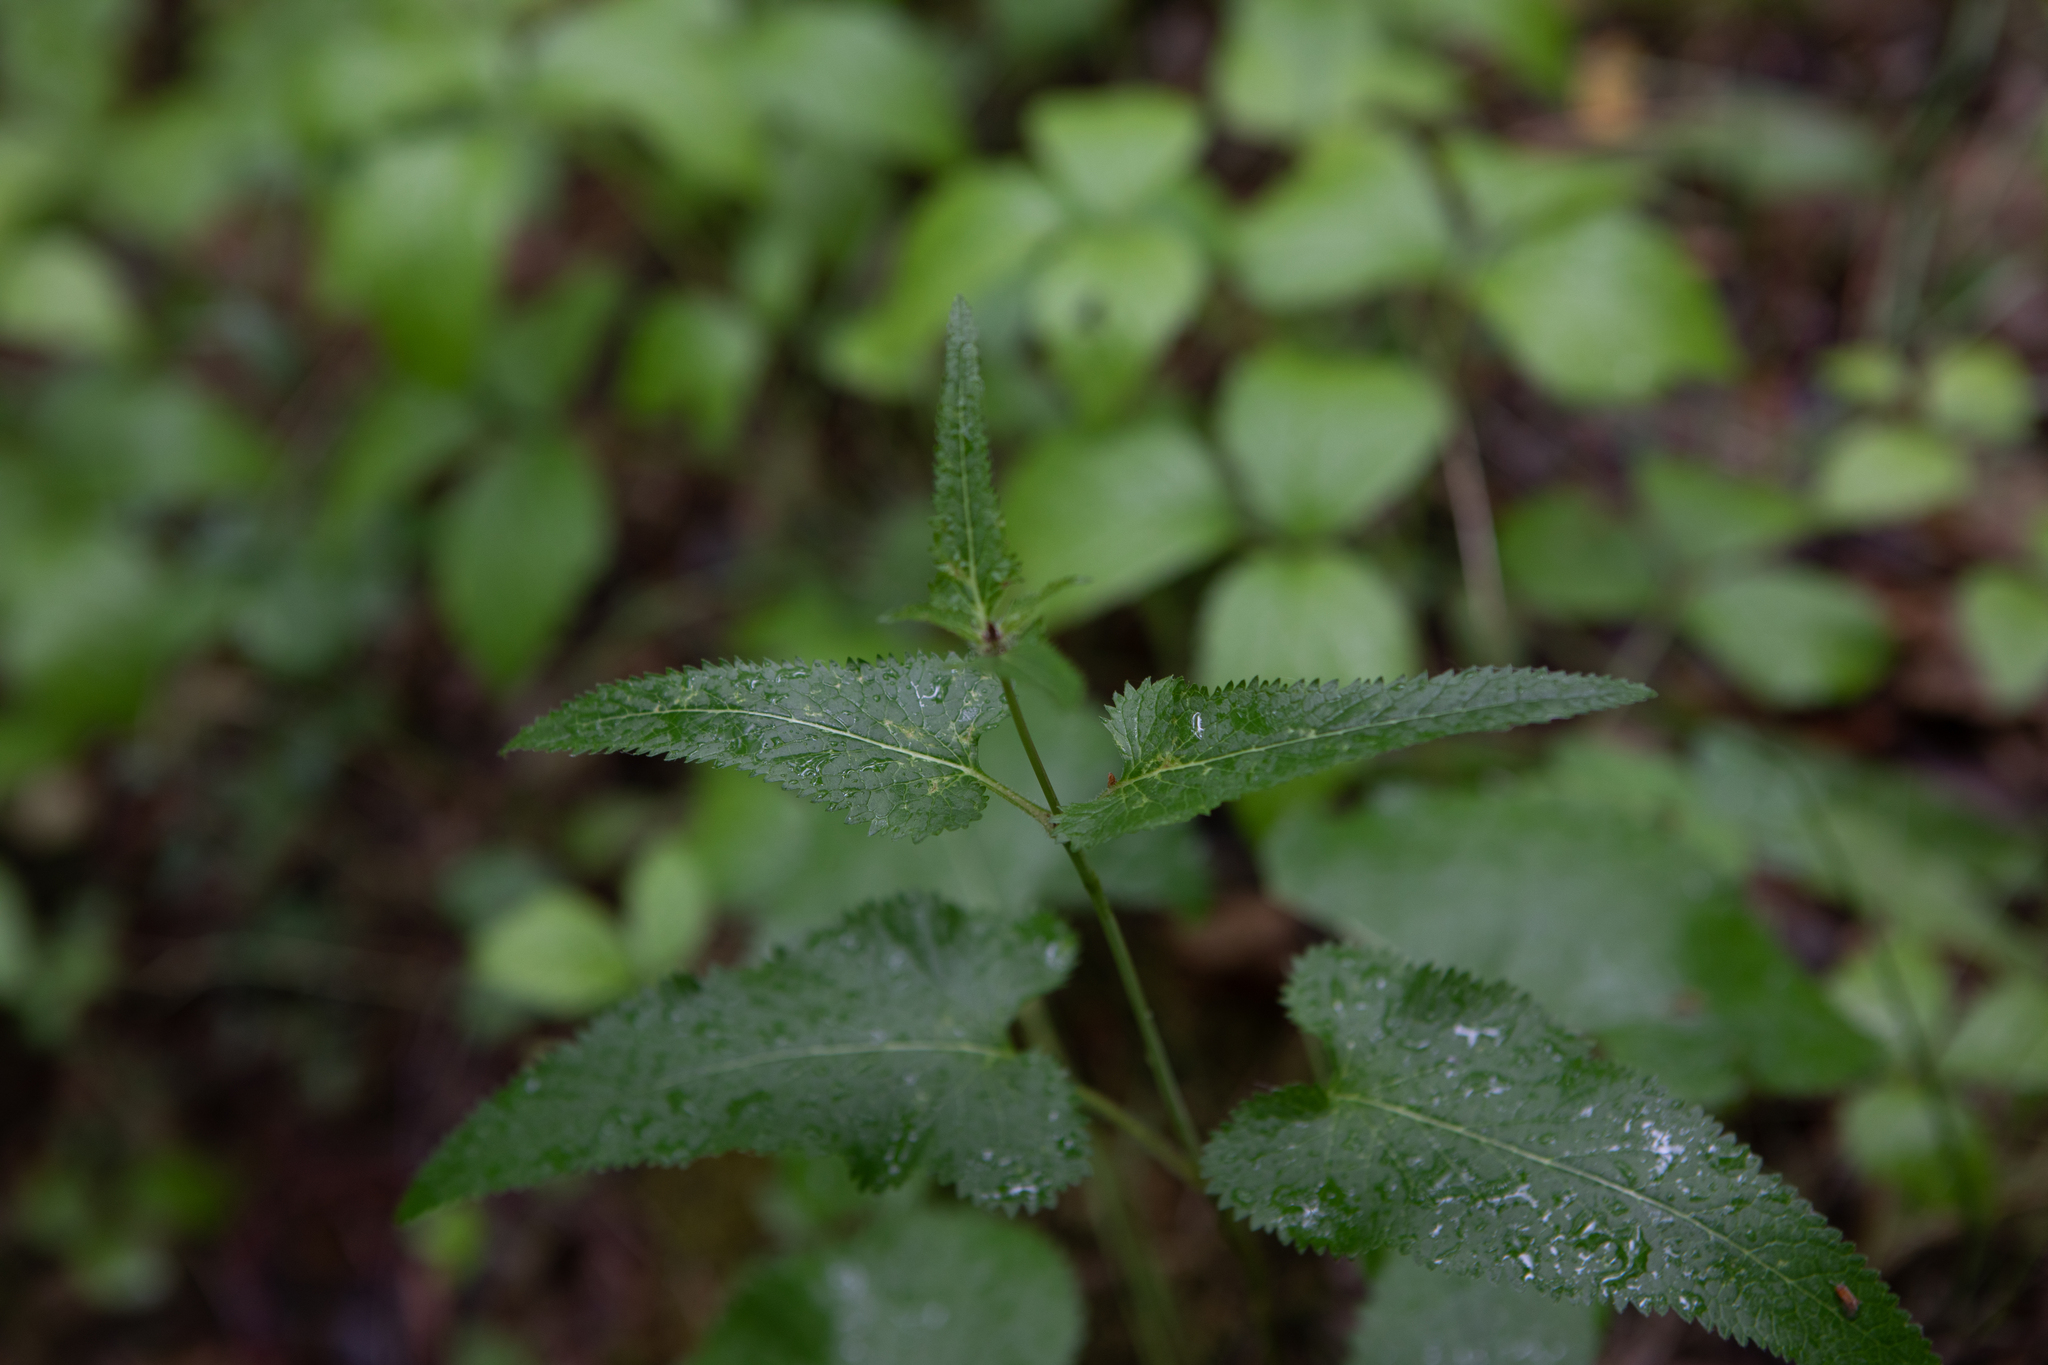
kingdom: Plantae
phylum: Tracheophyta
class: Magnoliopsida
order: Lamiales
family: Plantaginaceae
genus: Veronica
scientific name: Veronica longifolia
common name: Garden speedwell
